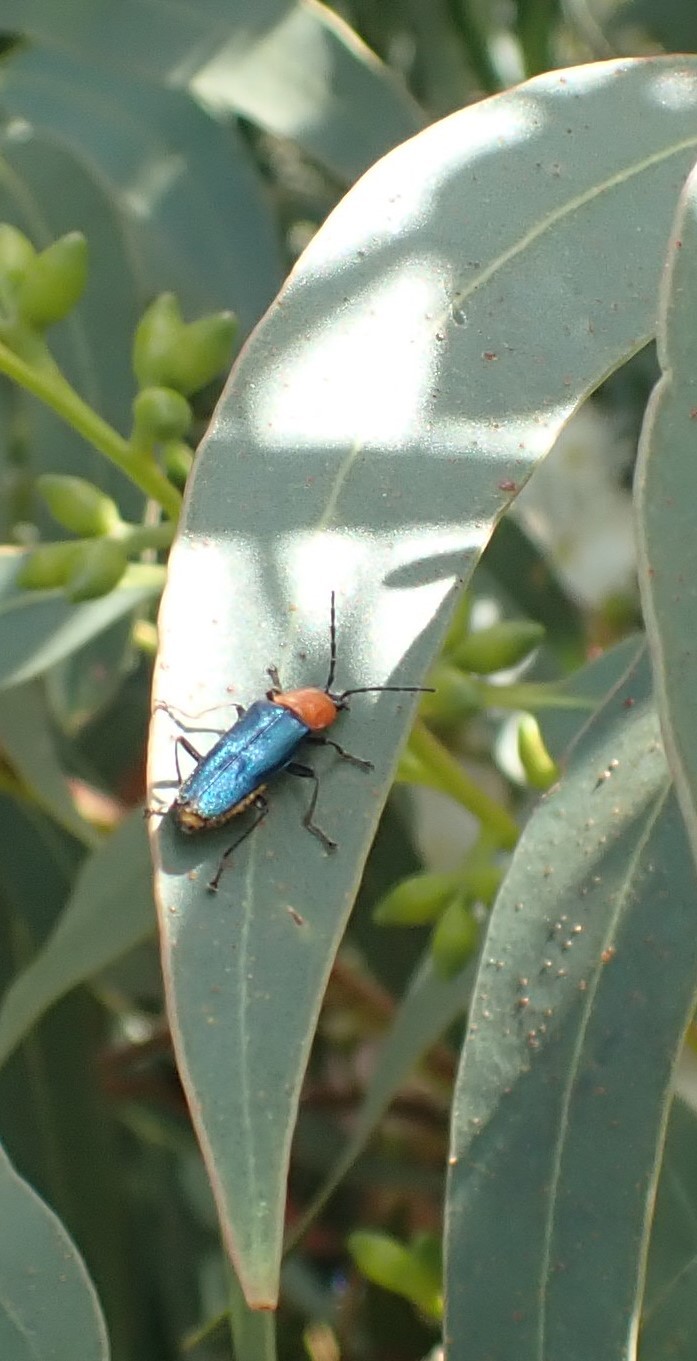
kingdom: Animalia
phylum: Arthropoda
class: Insecta
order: Coleoptera
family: Cantharidae
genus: Chauliognathus
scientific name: Chauliognathus
